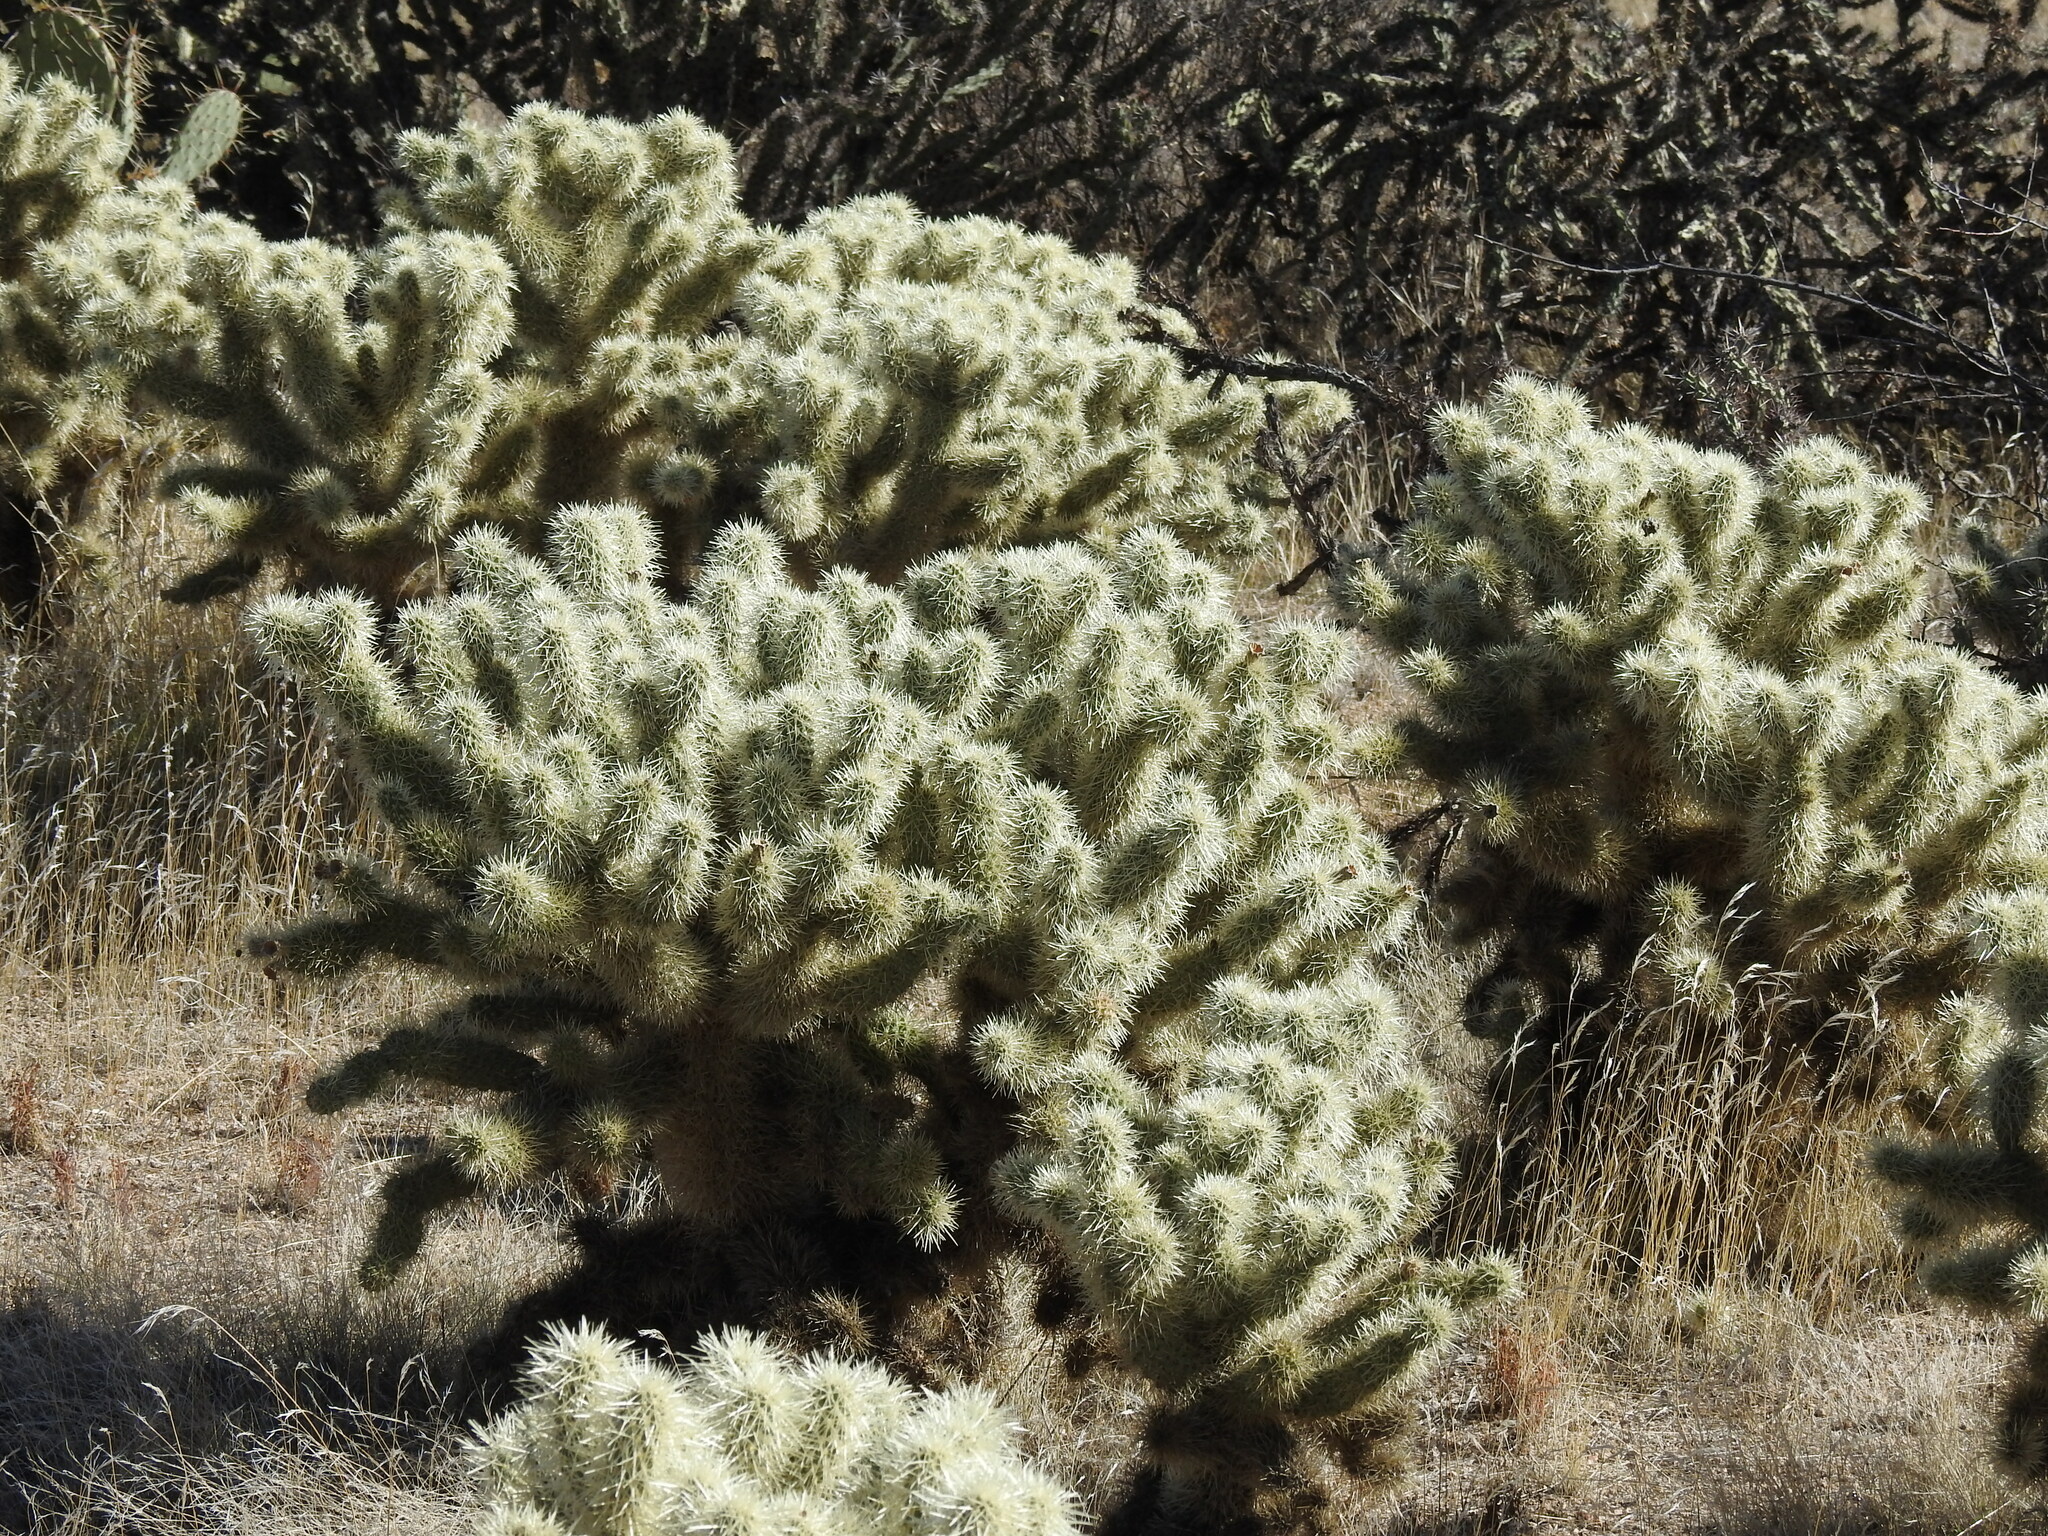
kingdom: Plantae
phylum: Tracheophyta
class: Magnoliopsida
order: Caryophyllales
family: Cactaceae
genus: Cylindropuntia
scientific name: Cylindropuntia fosbergii
